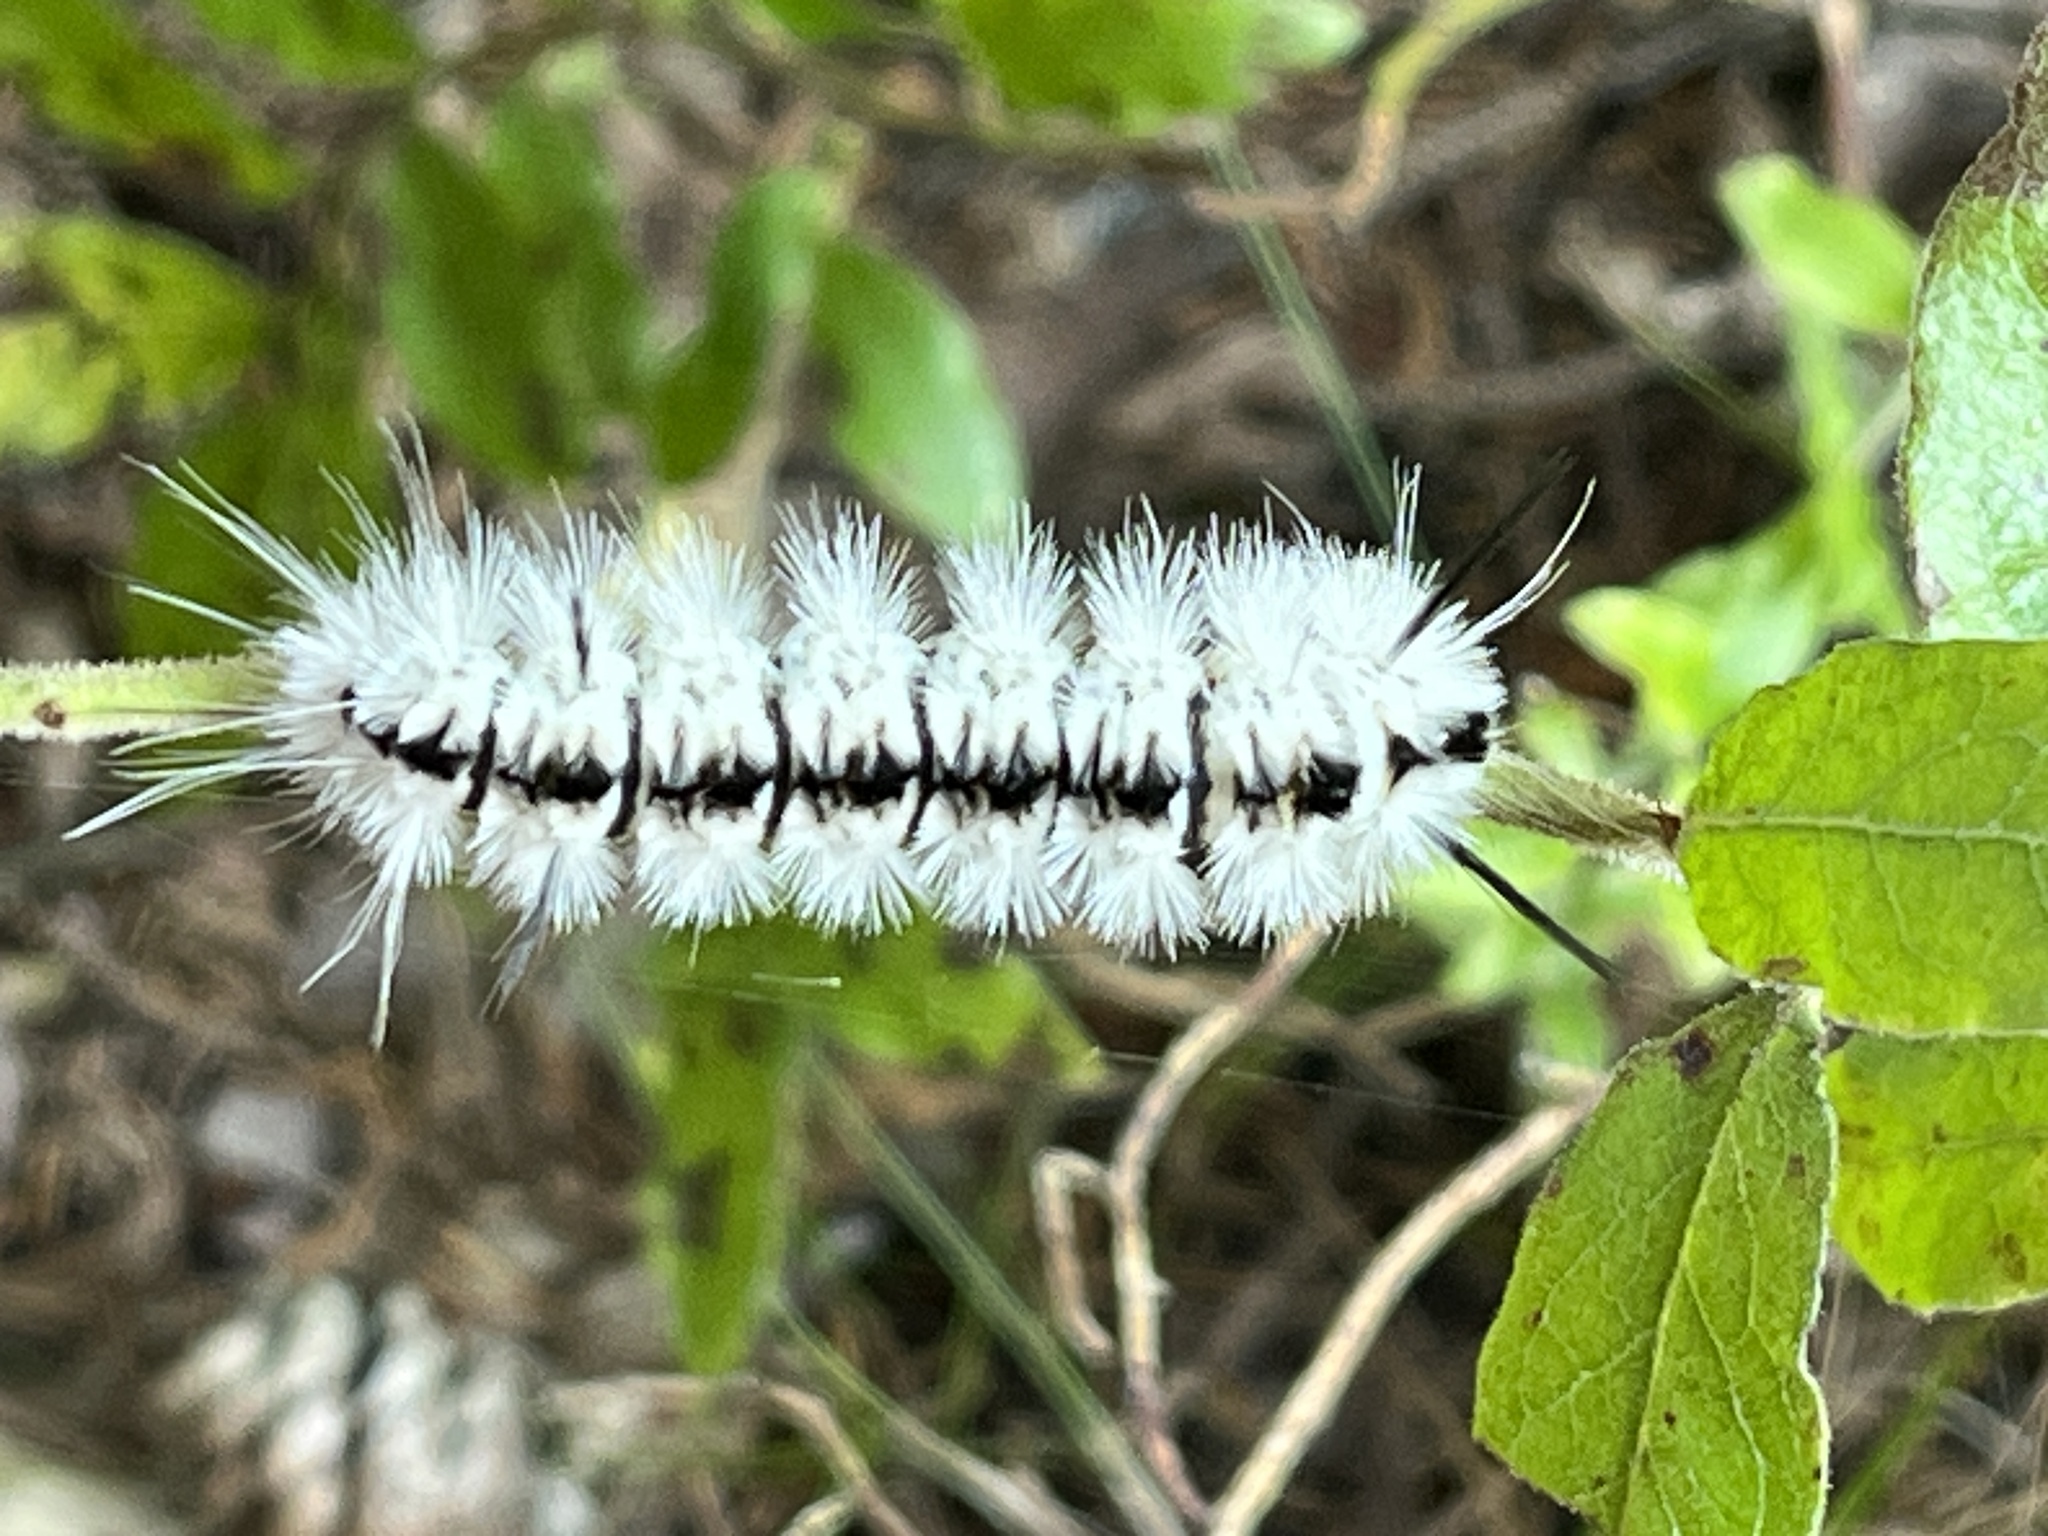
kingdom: Animalia
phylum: Arthropoda
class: Insecta
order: Lepidoptera
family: Erebidae
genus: Lophocampa
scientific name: Lophocampa caryae
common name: Hickory tussock moth
